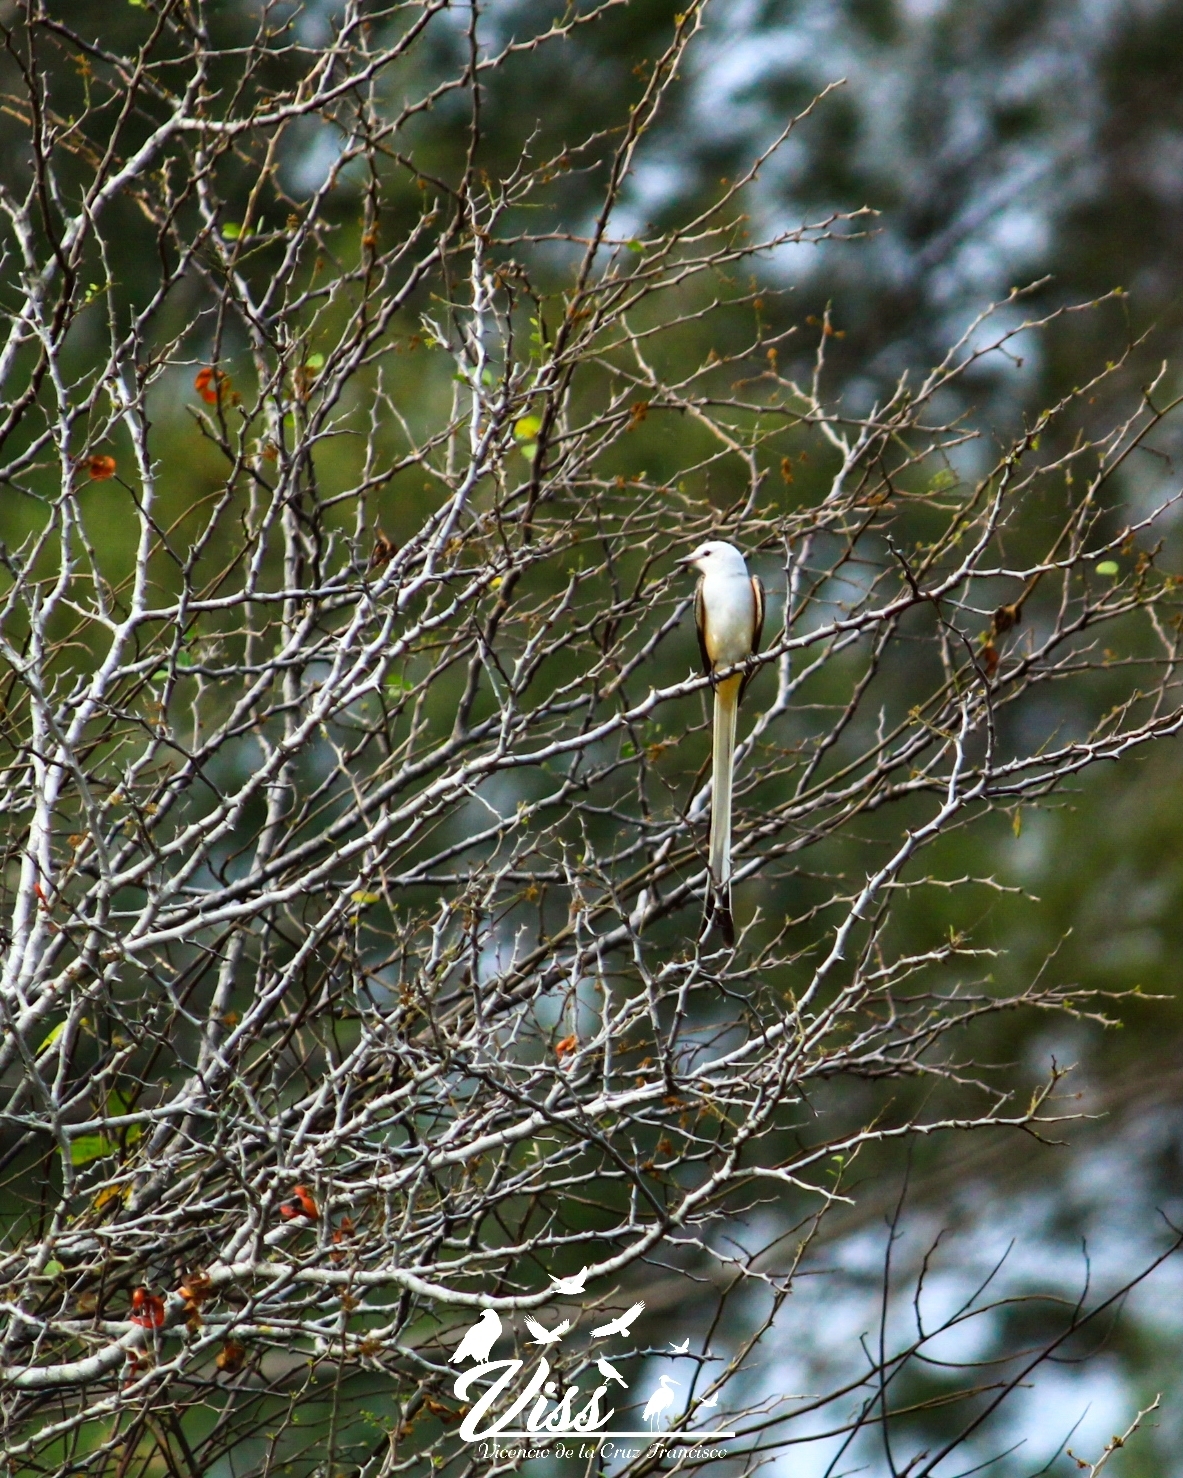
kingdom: Animalia
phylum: Chordata
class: Aves
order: Passeriformes
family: Tyrannidae
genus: Tyrannus
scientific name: Tyrannus forficatus
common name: Scissor-tailed flycatcher
